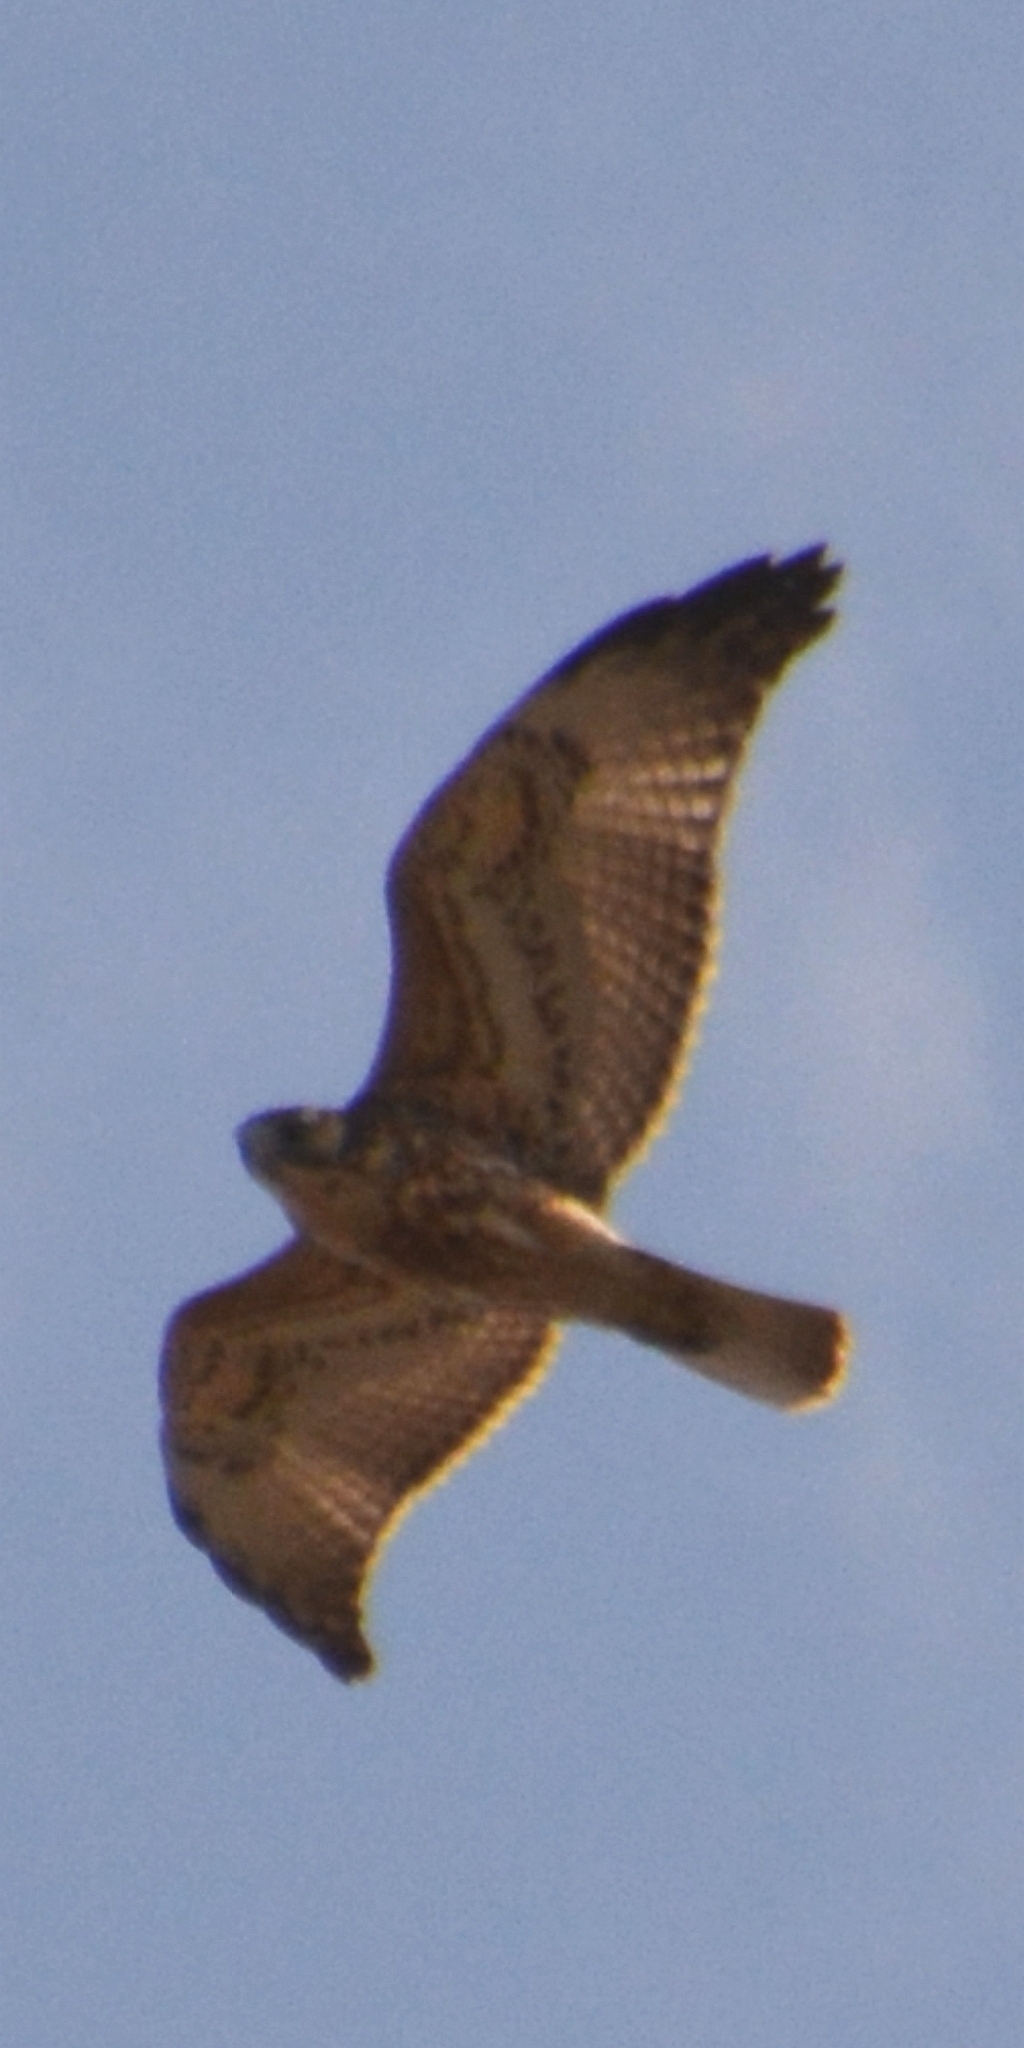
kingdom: Animalia
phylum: Chordata
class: Aves
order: Accipitriformes
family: Accipitridae
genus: Buteo
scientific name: Buteo polyosoma
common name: Variable hawk
